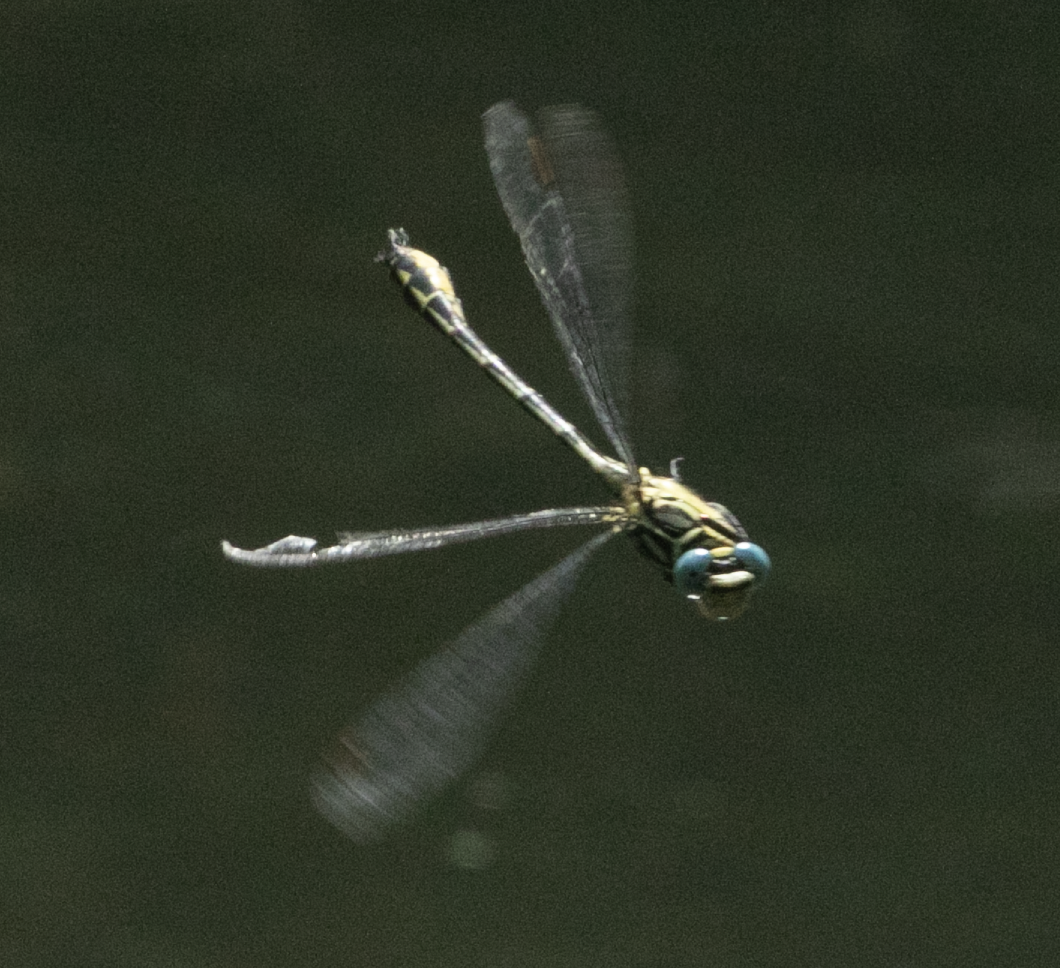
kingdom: Animalia
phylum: Arthropoda
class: Insecta
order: Odonata
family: Gomphidae
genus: Stylurus
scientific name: Stylurus flavipes
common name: River clubtail
